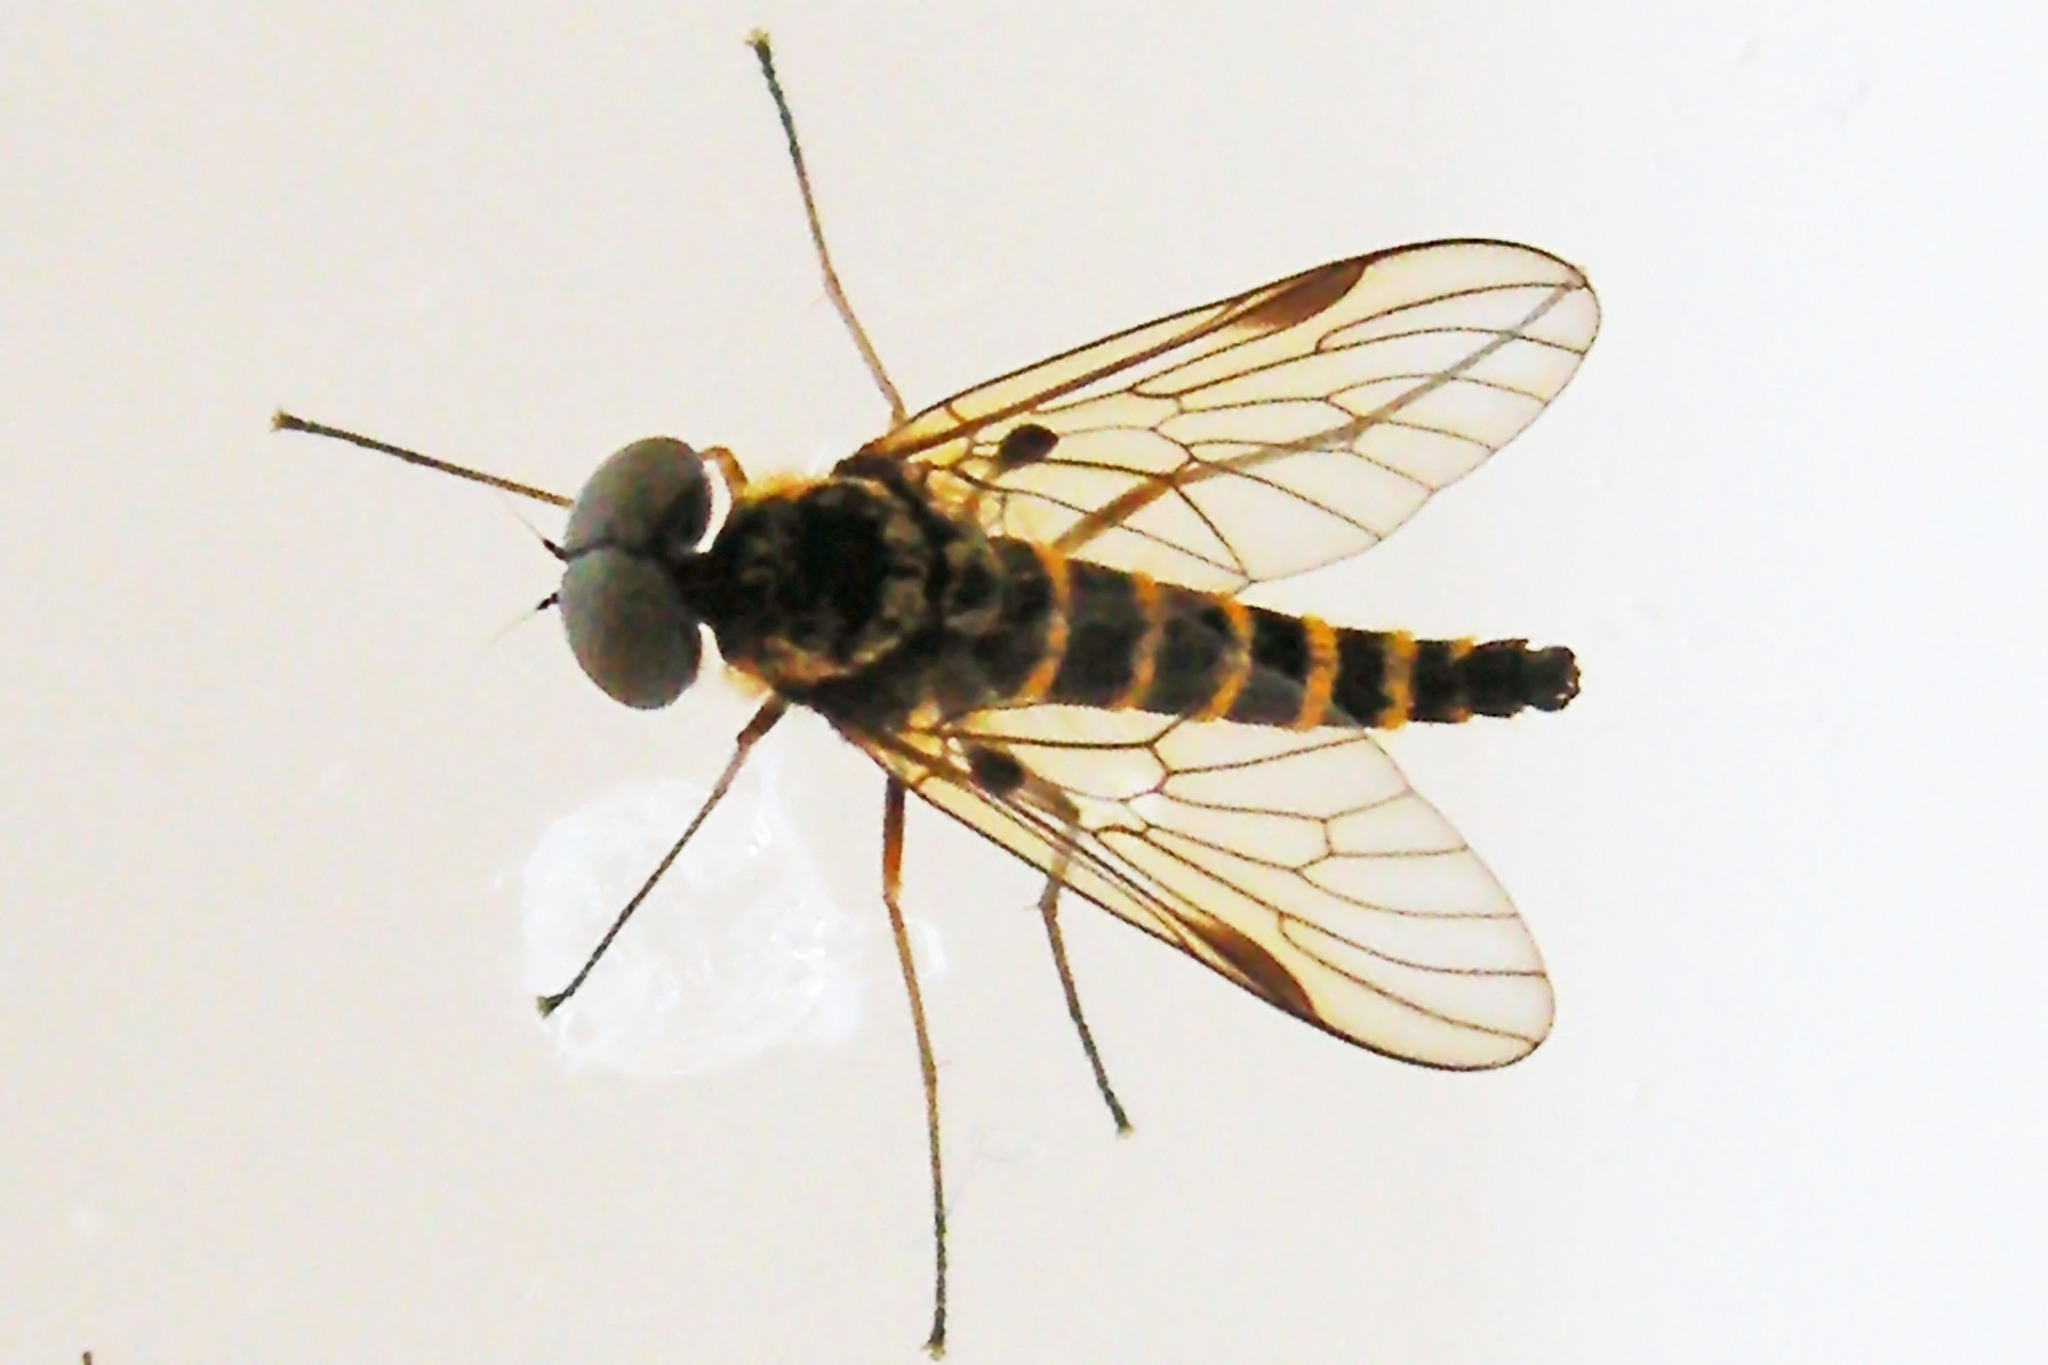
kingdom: Animalia
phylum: Arthropoda
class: Insecta
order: Diptera
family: Rhagionidae
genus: Chrysopilus
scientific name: Chrysopilus fasciatus
